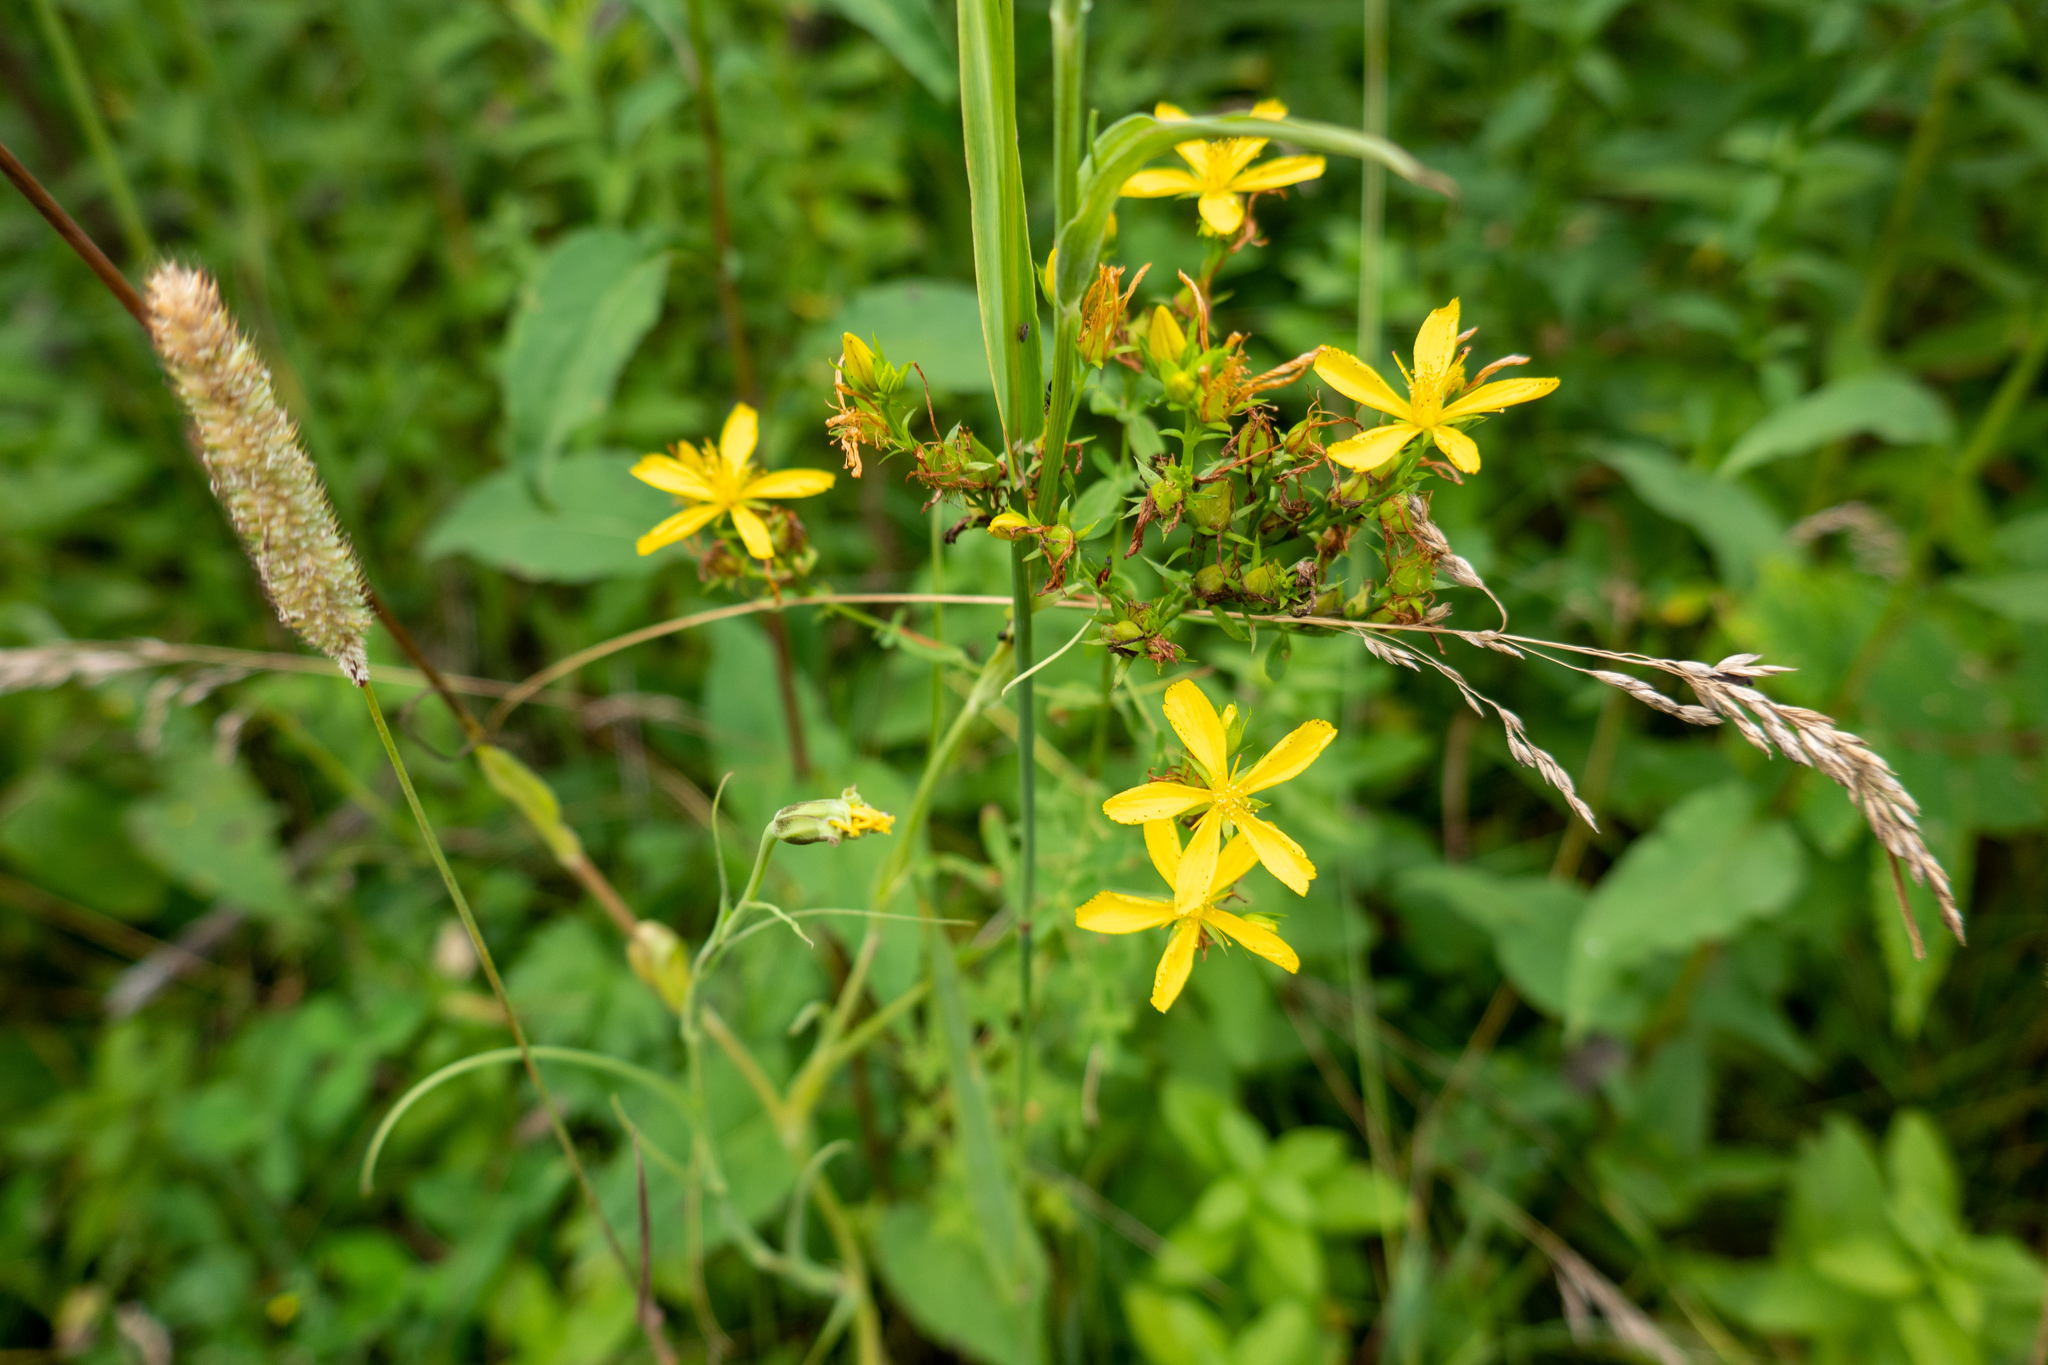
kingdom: Plantae
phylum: Tracheophyta
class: Magnoliopsida
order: Malpighiales
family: Hypericaceae
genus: Hypericum
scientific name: Hypericum perforatum
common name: Common st. johnswort
